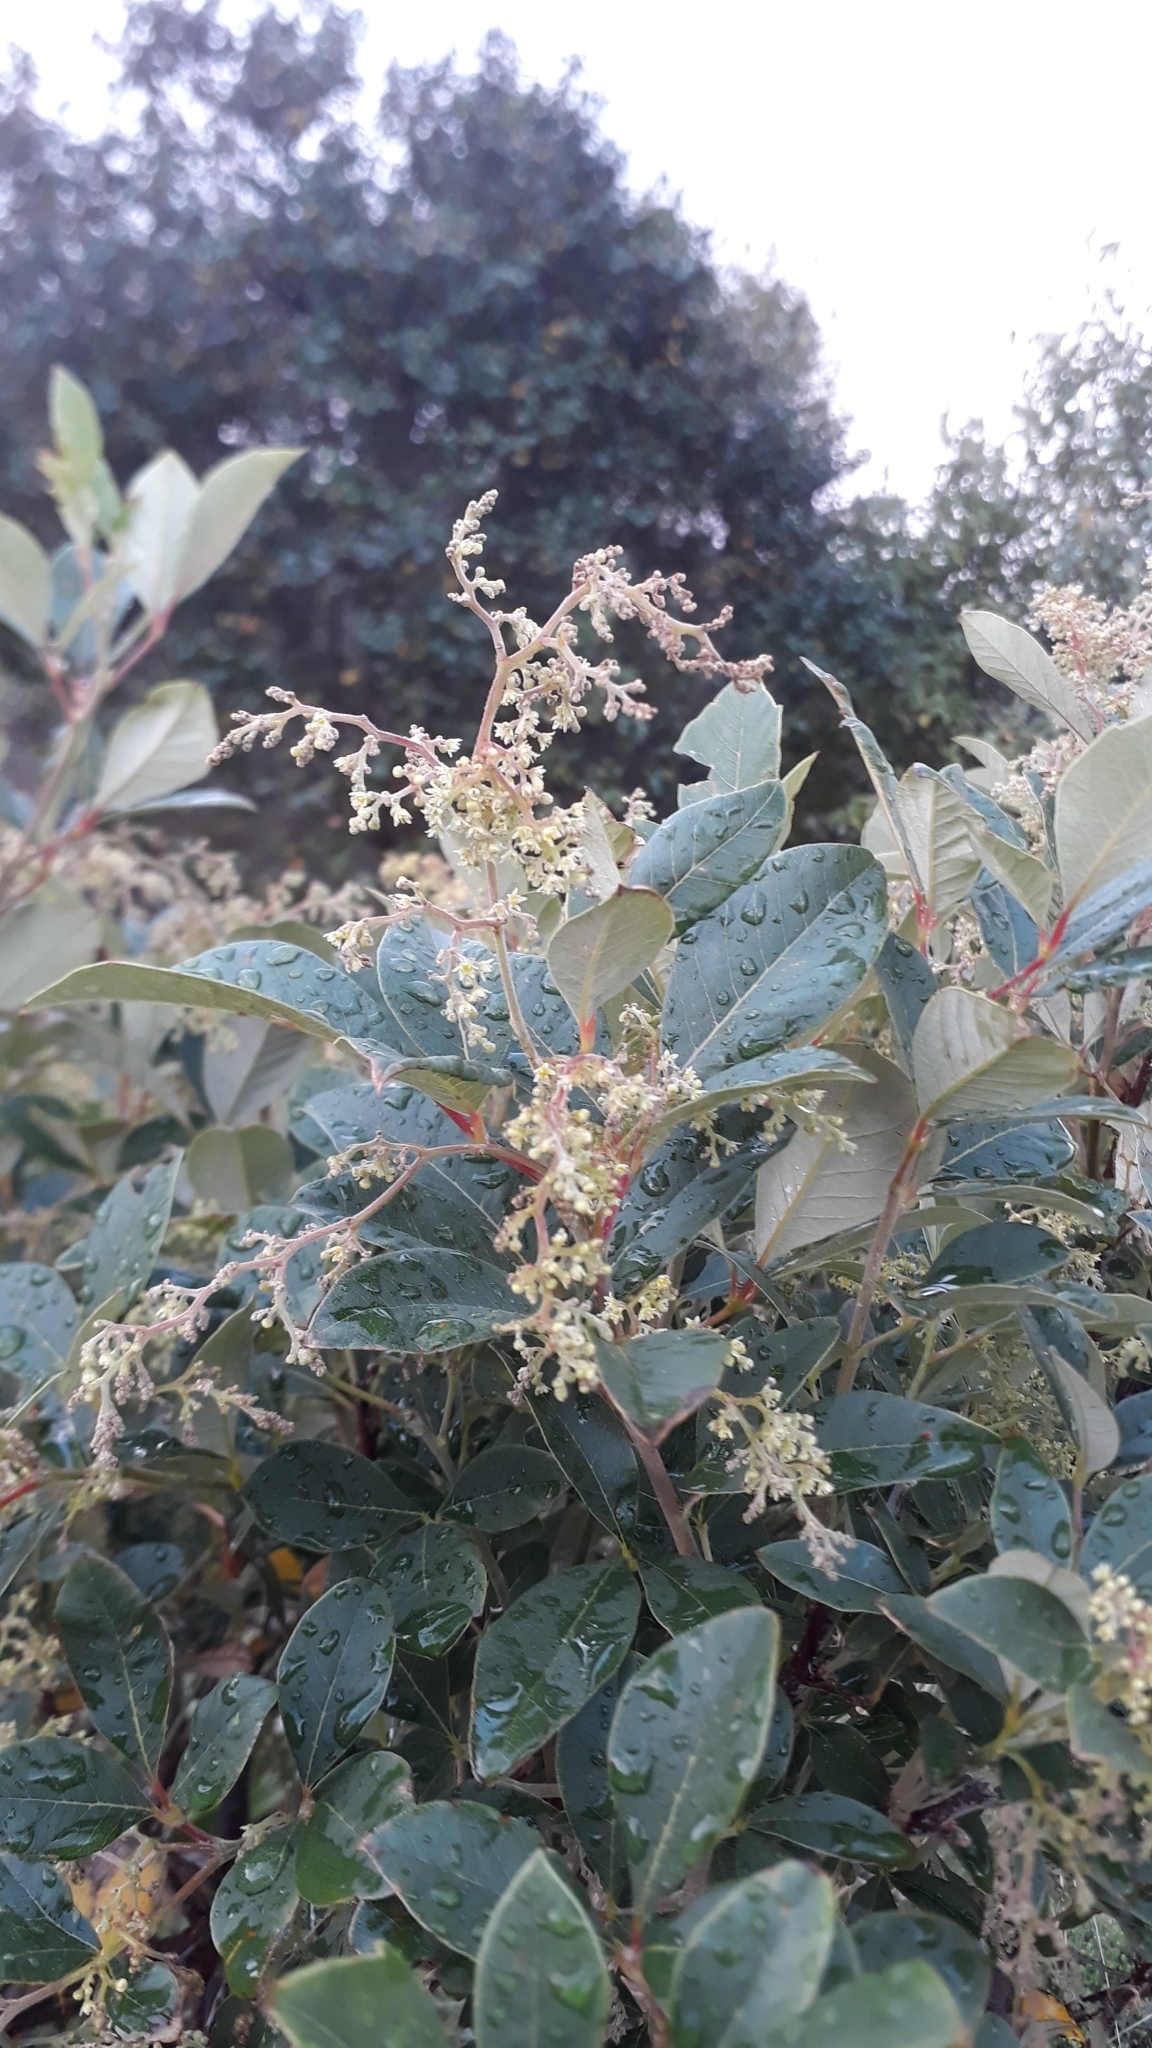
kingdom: Plantae
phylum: Tracheophyta
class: Magnoliopsida
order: Sapindales
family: Anacardiaceae
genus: Searsia
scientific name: Searsia tomentosa
